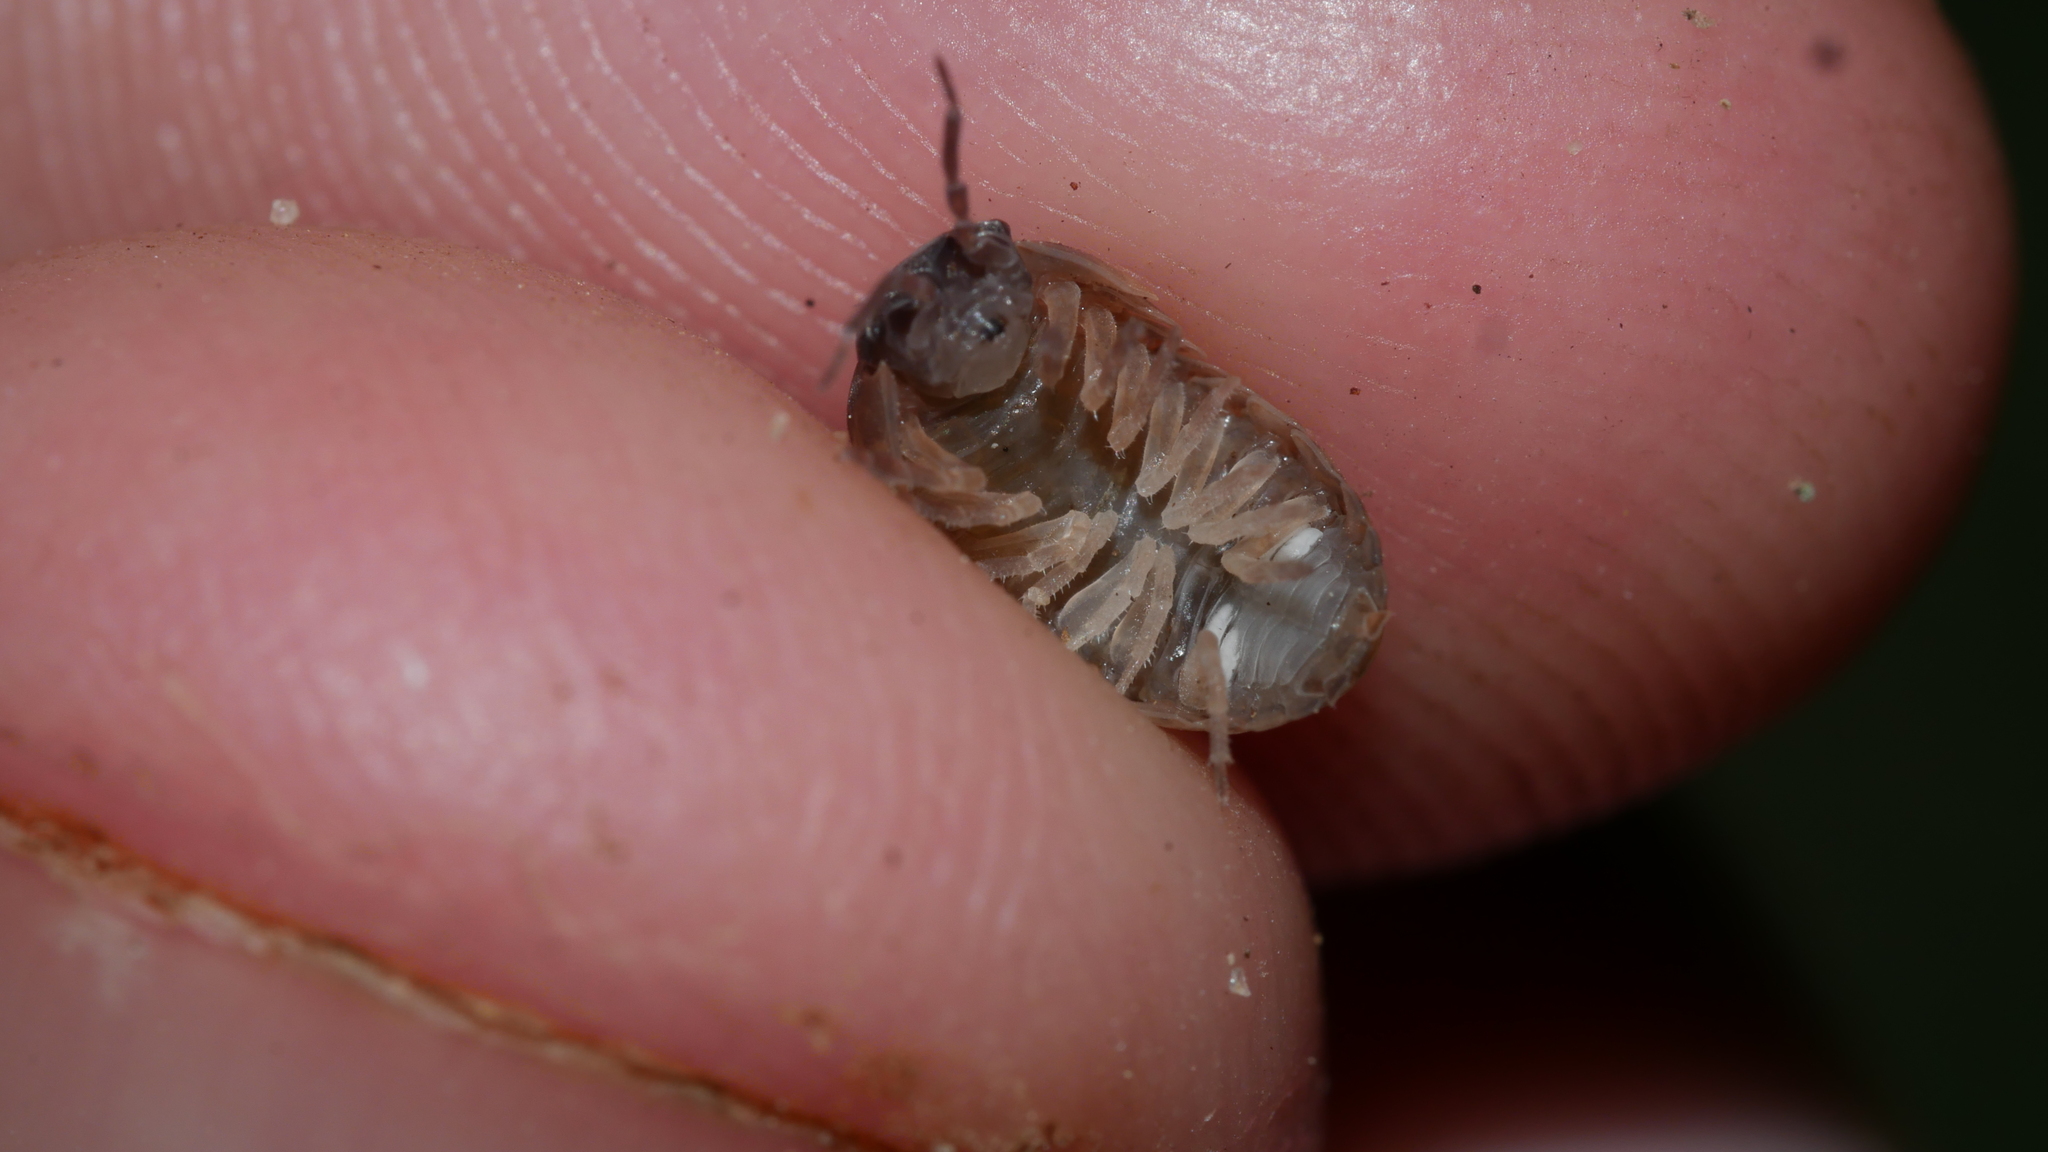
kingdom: Animalia
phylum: Arthropoda
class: Malacostraca
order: Isopoda
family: Armadillidiidae
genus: Armadillidium
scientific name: Armadillidium vulgare
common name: Common pill woodlouse
